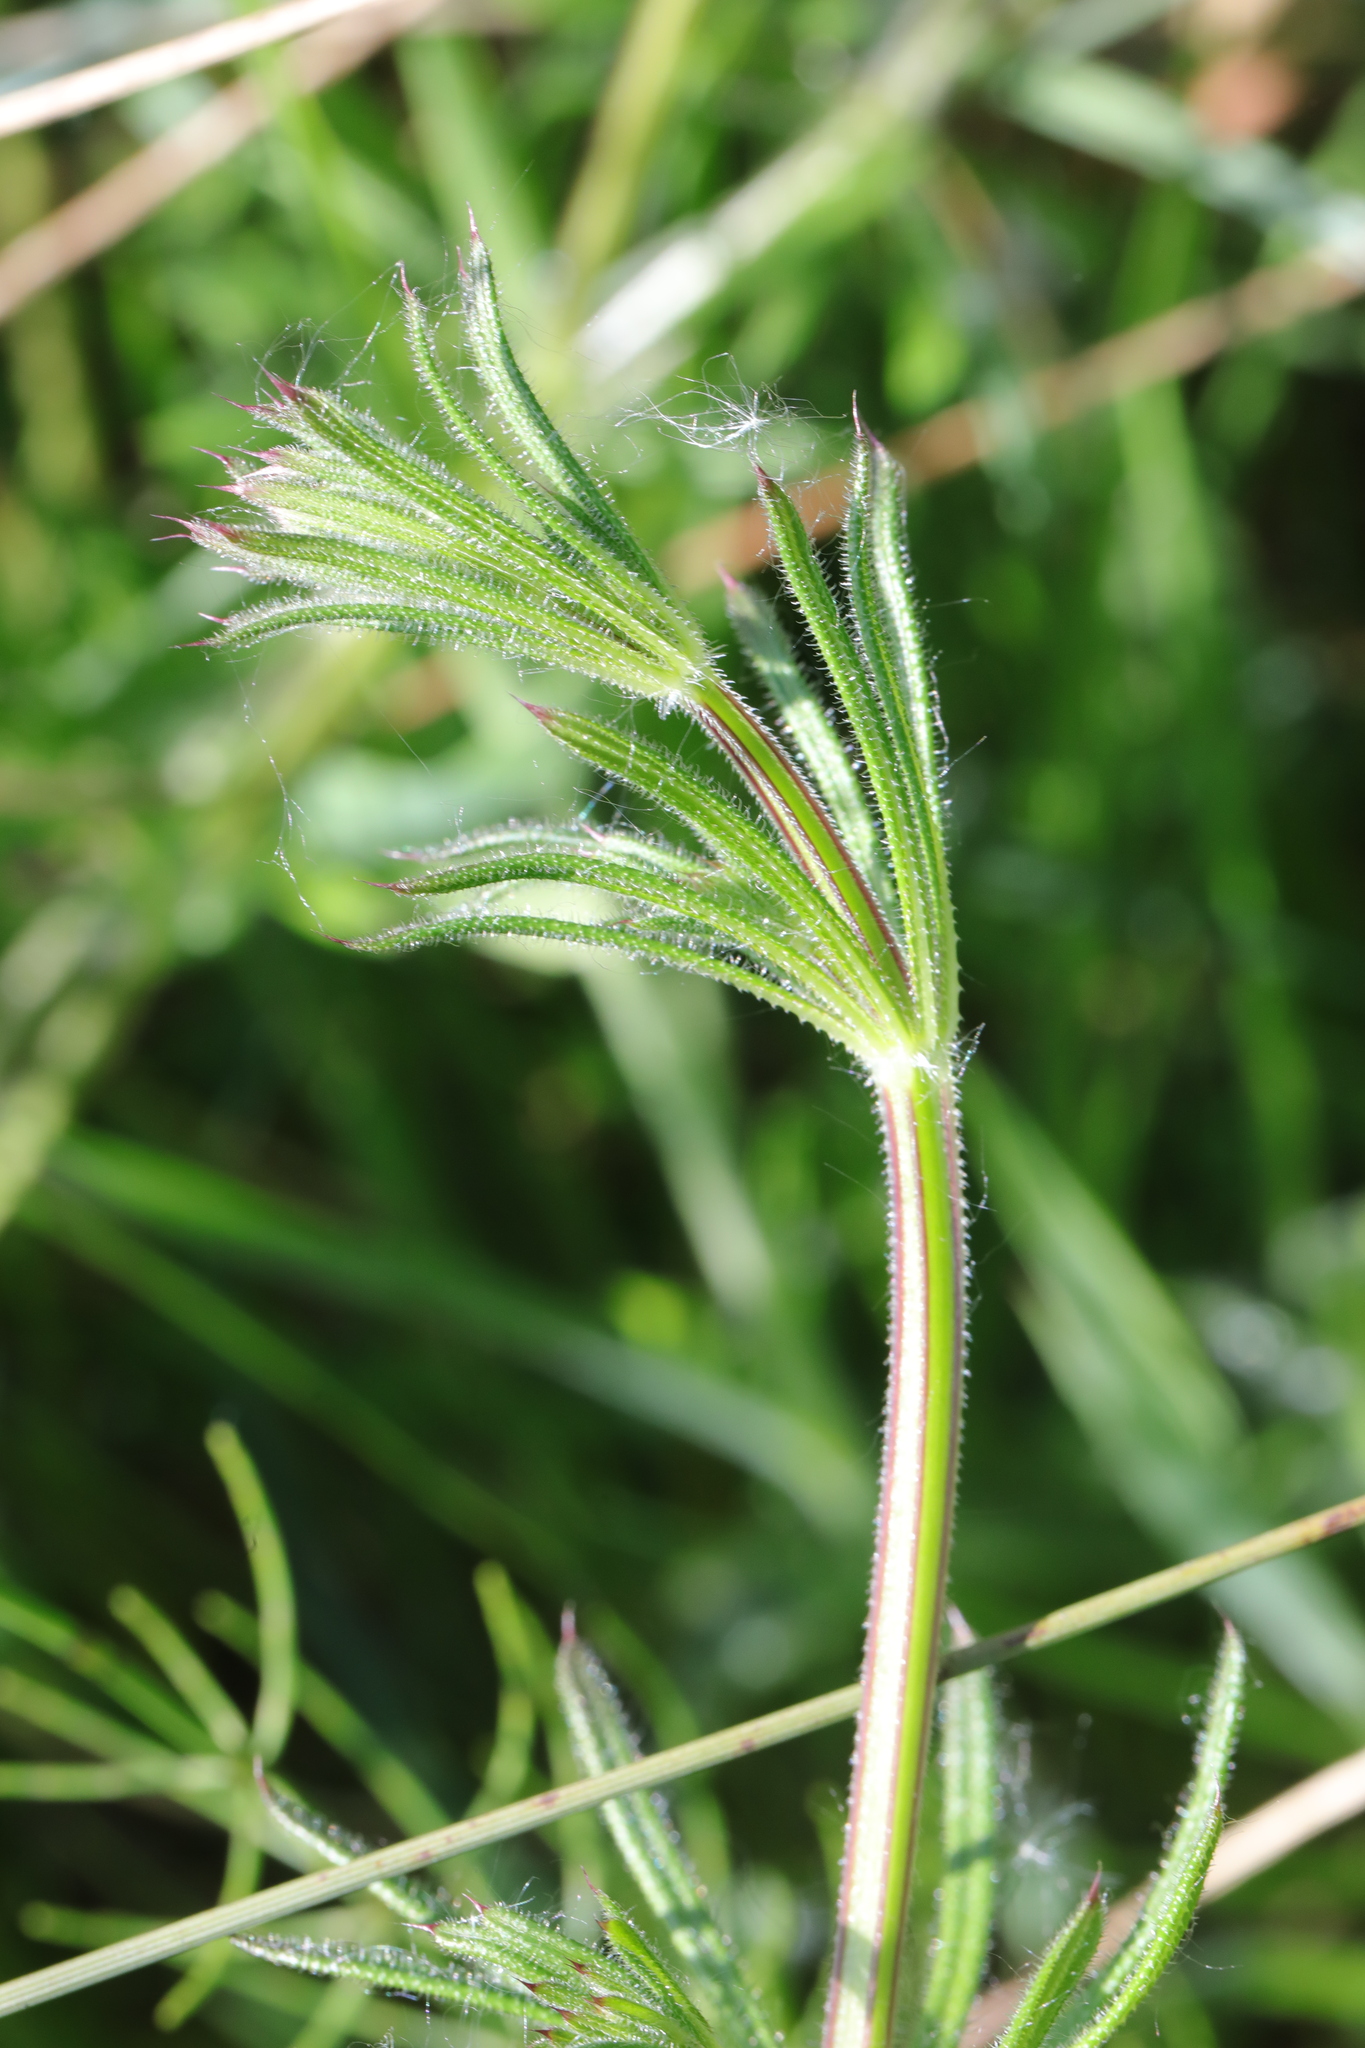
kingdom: Plantae
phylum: Tracheophyta
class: Magnoliopsida
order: Gentianales
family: Rubiaceae
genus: Galium
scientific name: Galium aparine
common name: Cleavers
